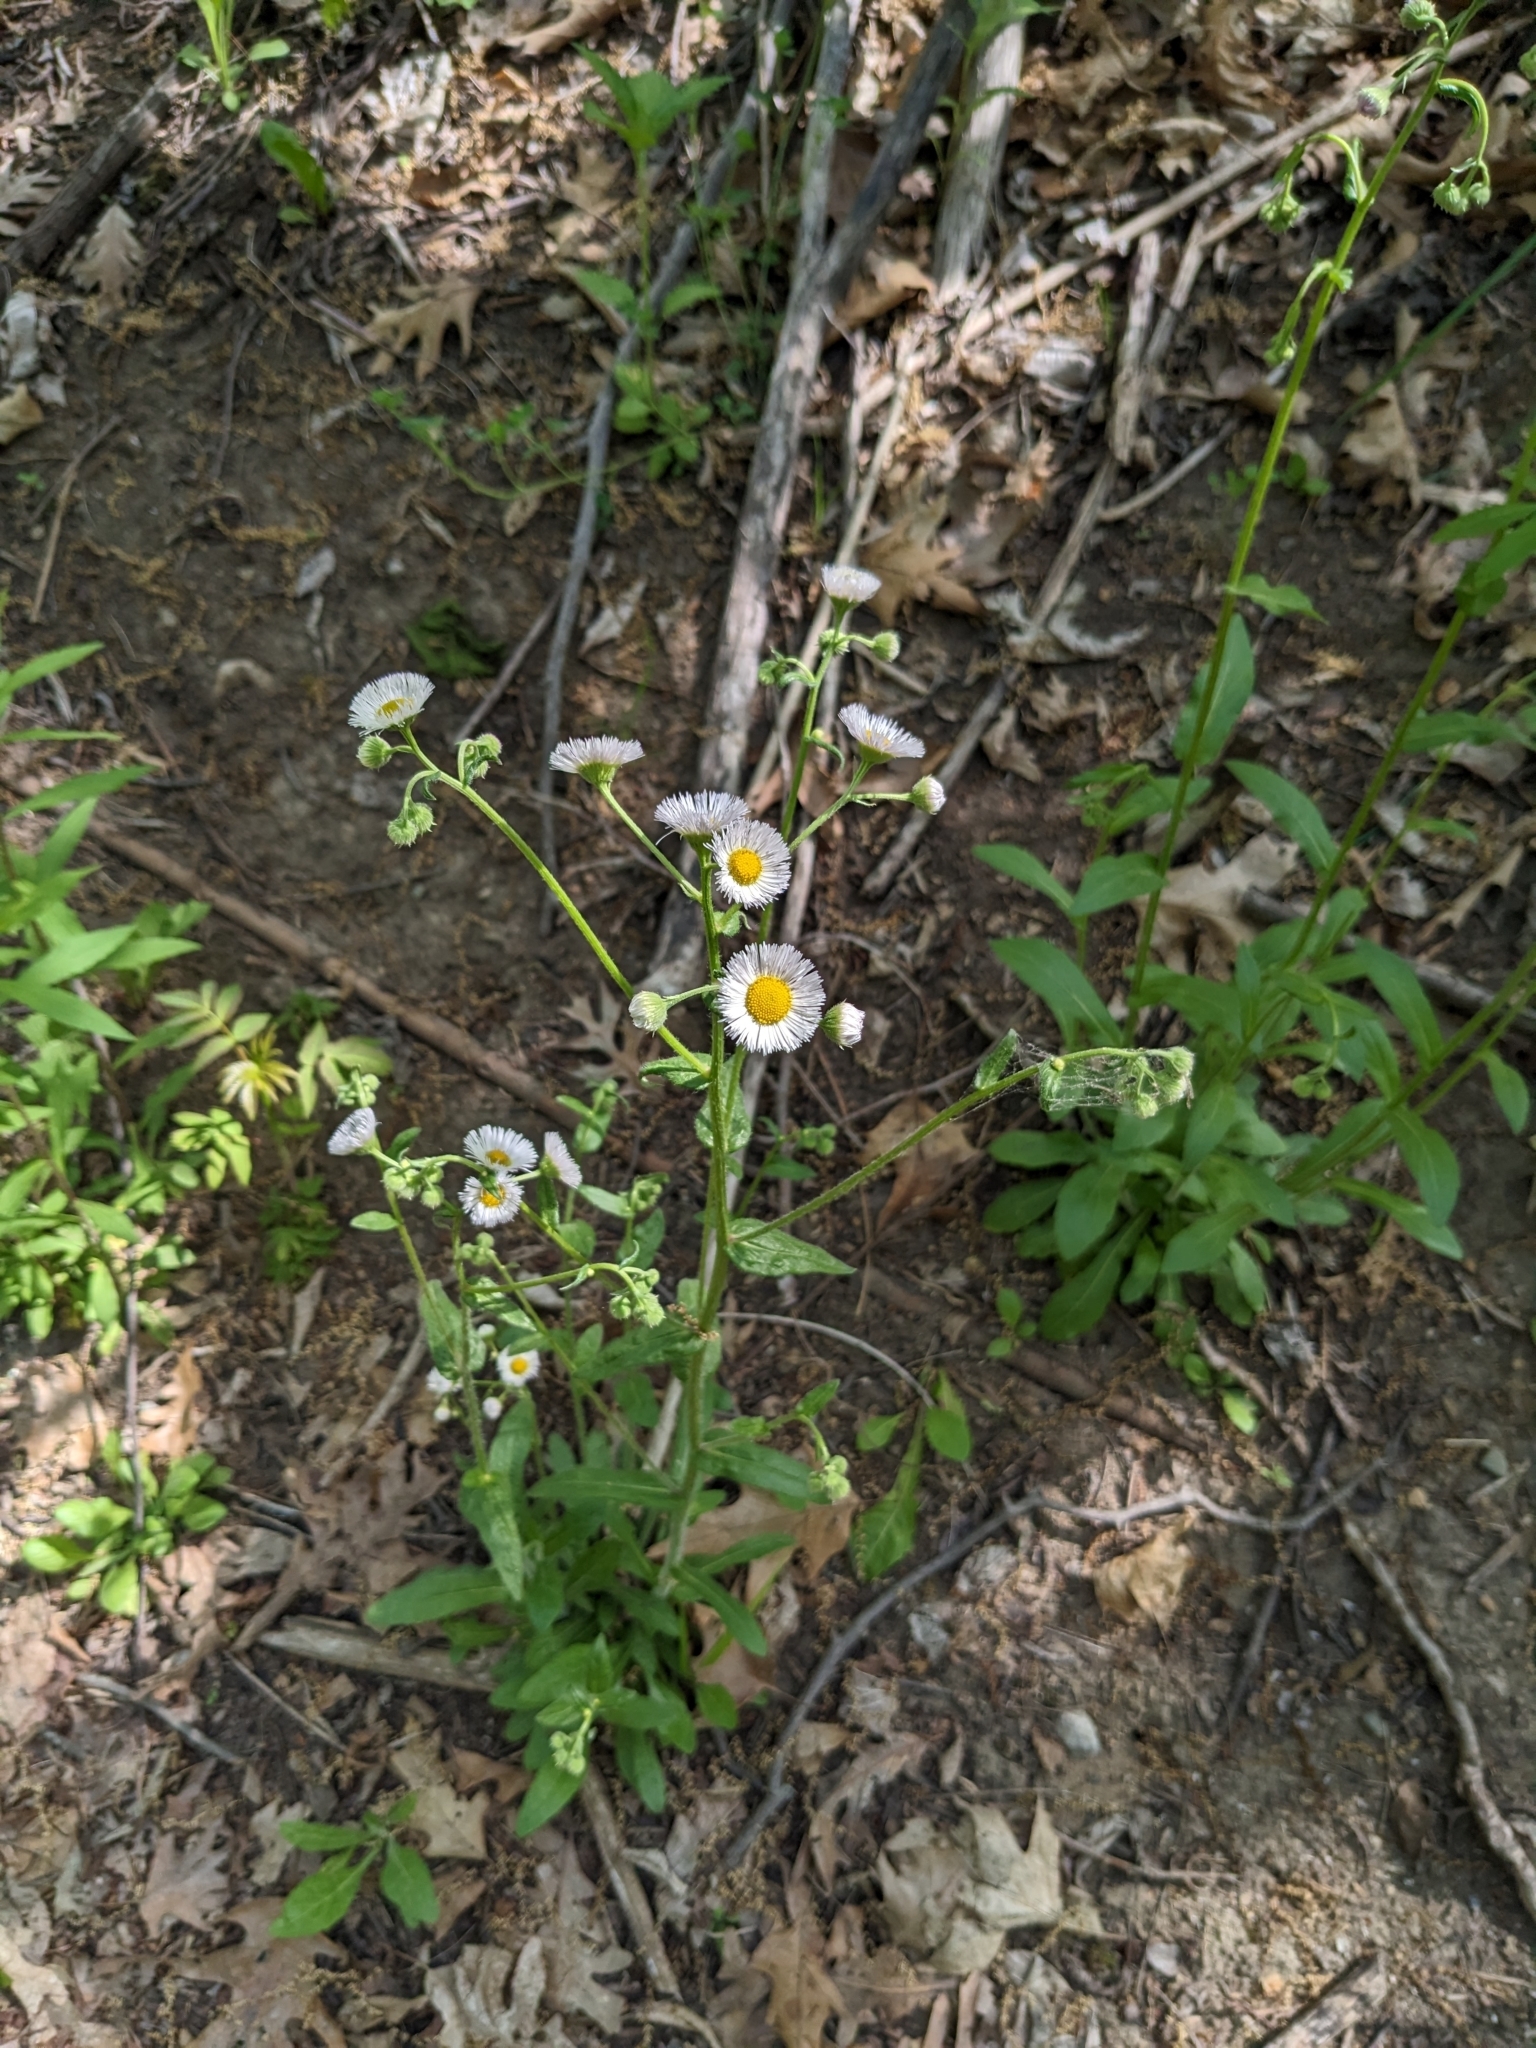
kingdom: Plantae
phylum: Tracheophyta
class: Magnoliopsida
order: Asterales
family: Asteraceae
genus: Erigeron
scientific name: Erigeron philadelphicus
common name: Robin's-plantain
